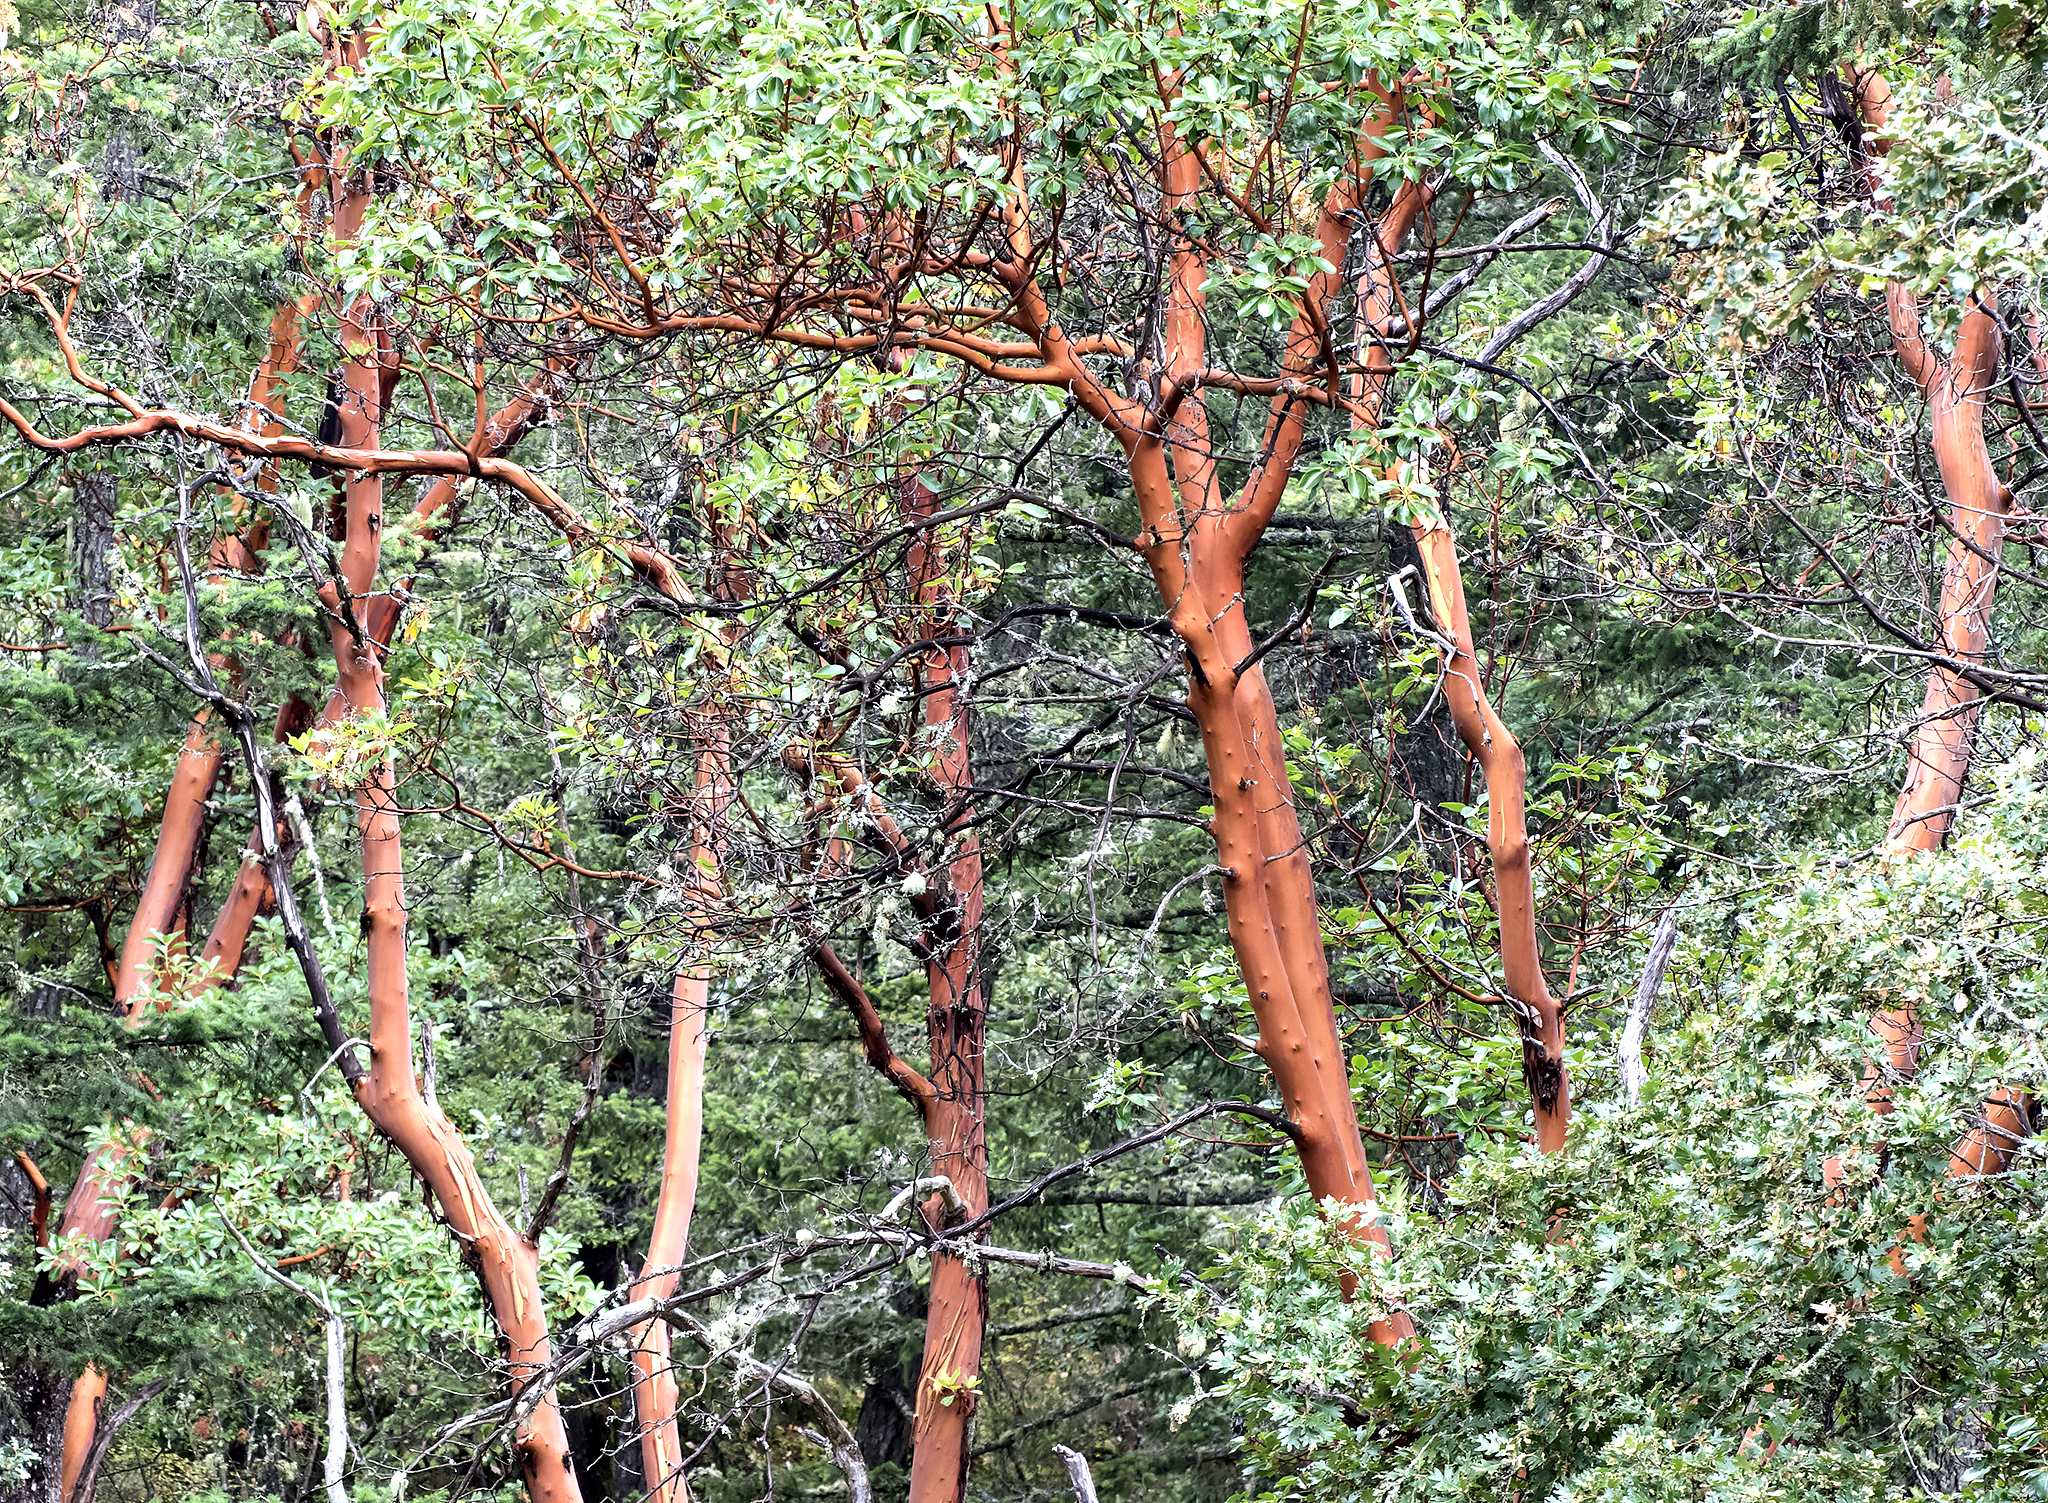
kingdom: Plantae
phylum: Tracheophyta
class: Magnoliopsida
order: Ericales
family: Ericaceae
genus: Arbutus
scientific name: Arbutus menziesii
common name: Pacific madrone
